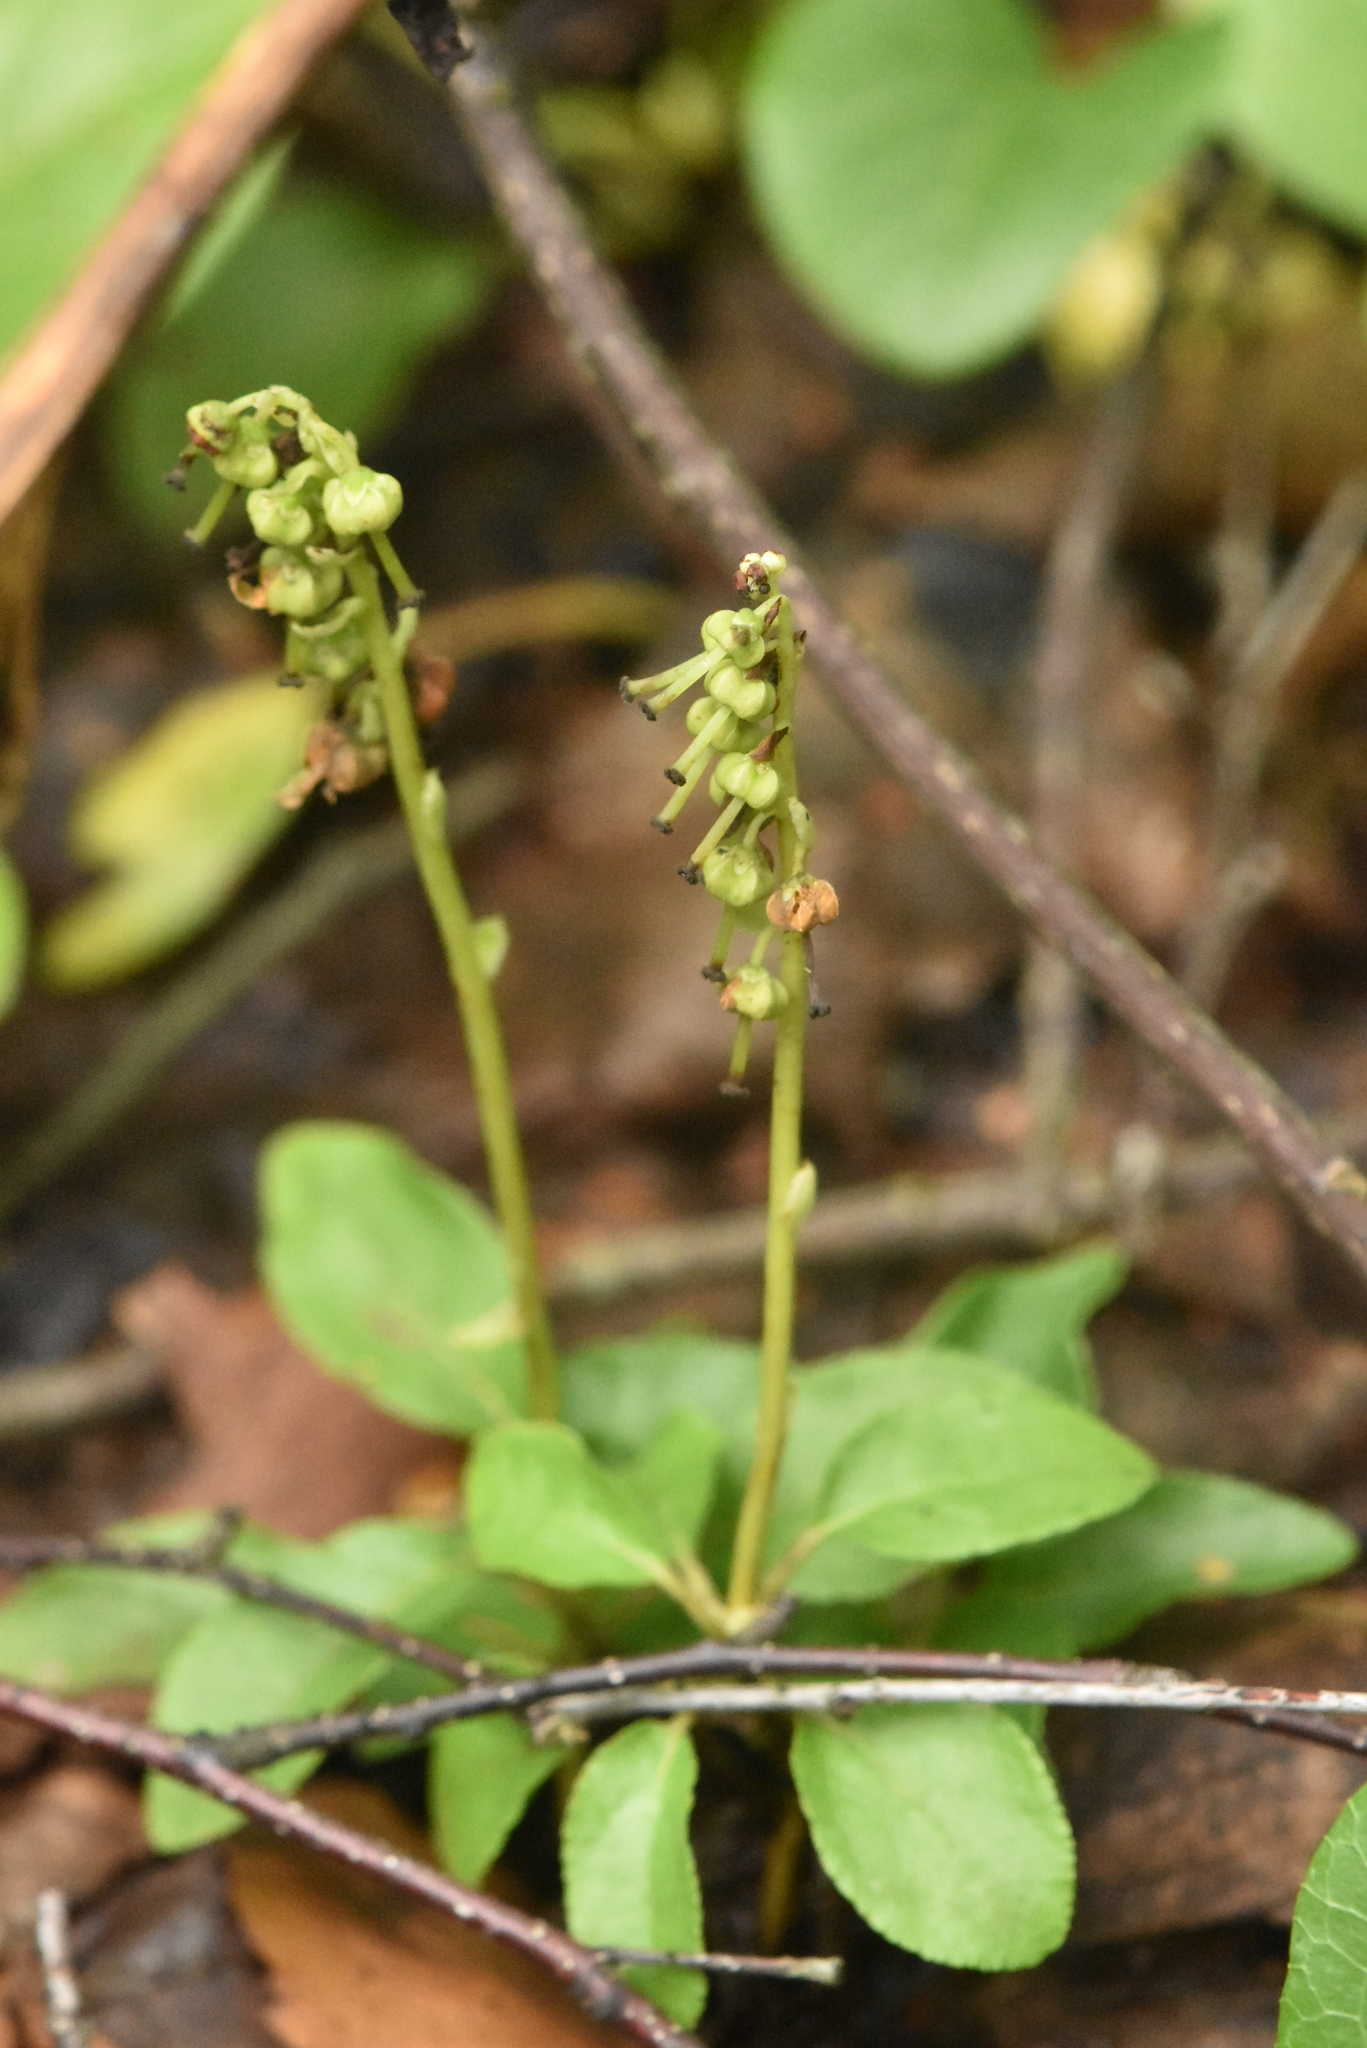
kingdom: Plantae
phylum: Tracheophyta
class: Magnoliopsida
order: Ericales
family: Ericaceae
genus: Orthilia
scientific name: Orthilia secunda
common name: One-sided orthilia
